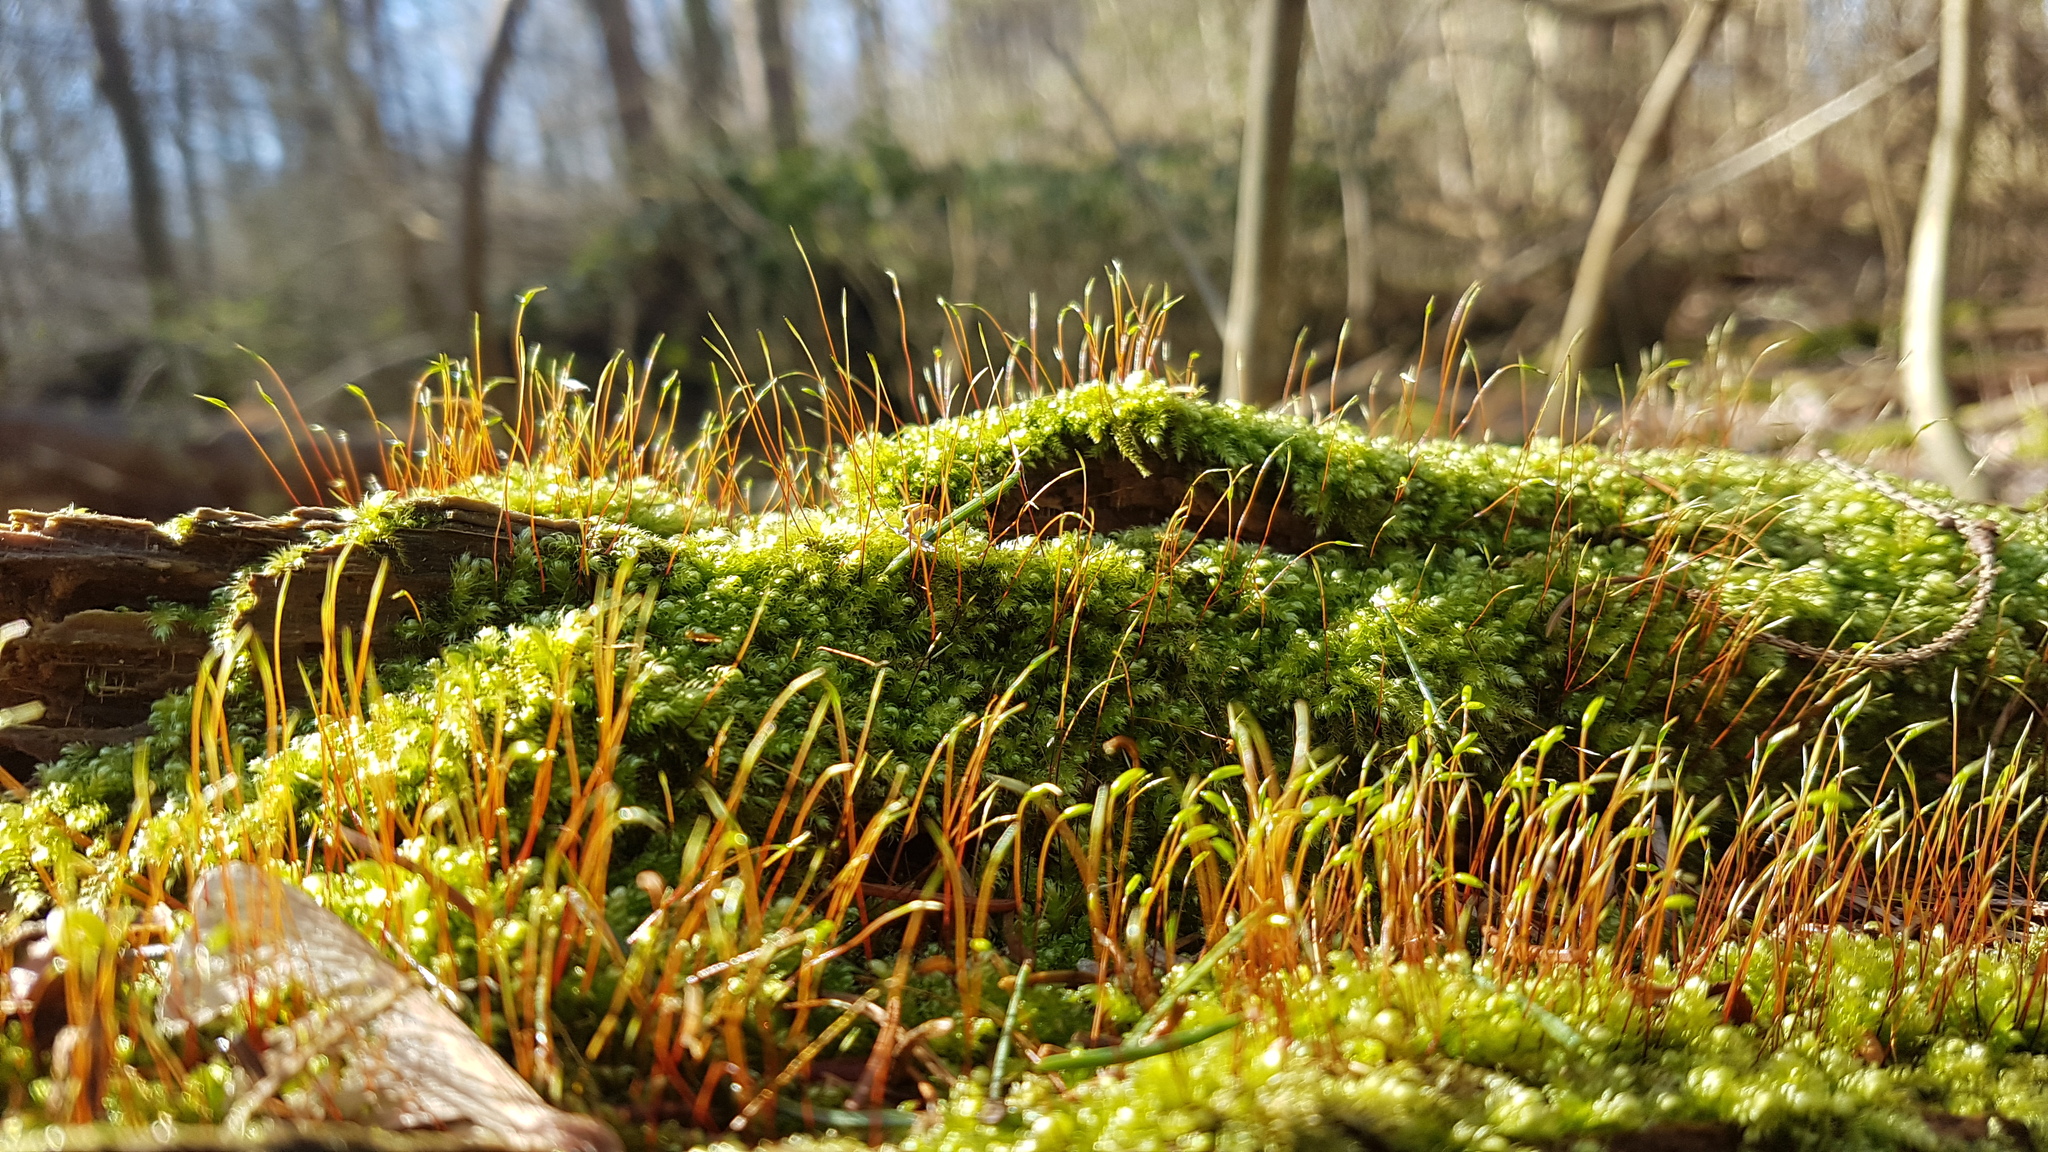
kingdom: Plantae
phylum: Bryophyta
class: Bryopsida
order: Hypnales
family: Plagiotheciaceae
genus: Herzogiella
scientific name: Herzogiella seligeri
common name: Silesian feather-moss
